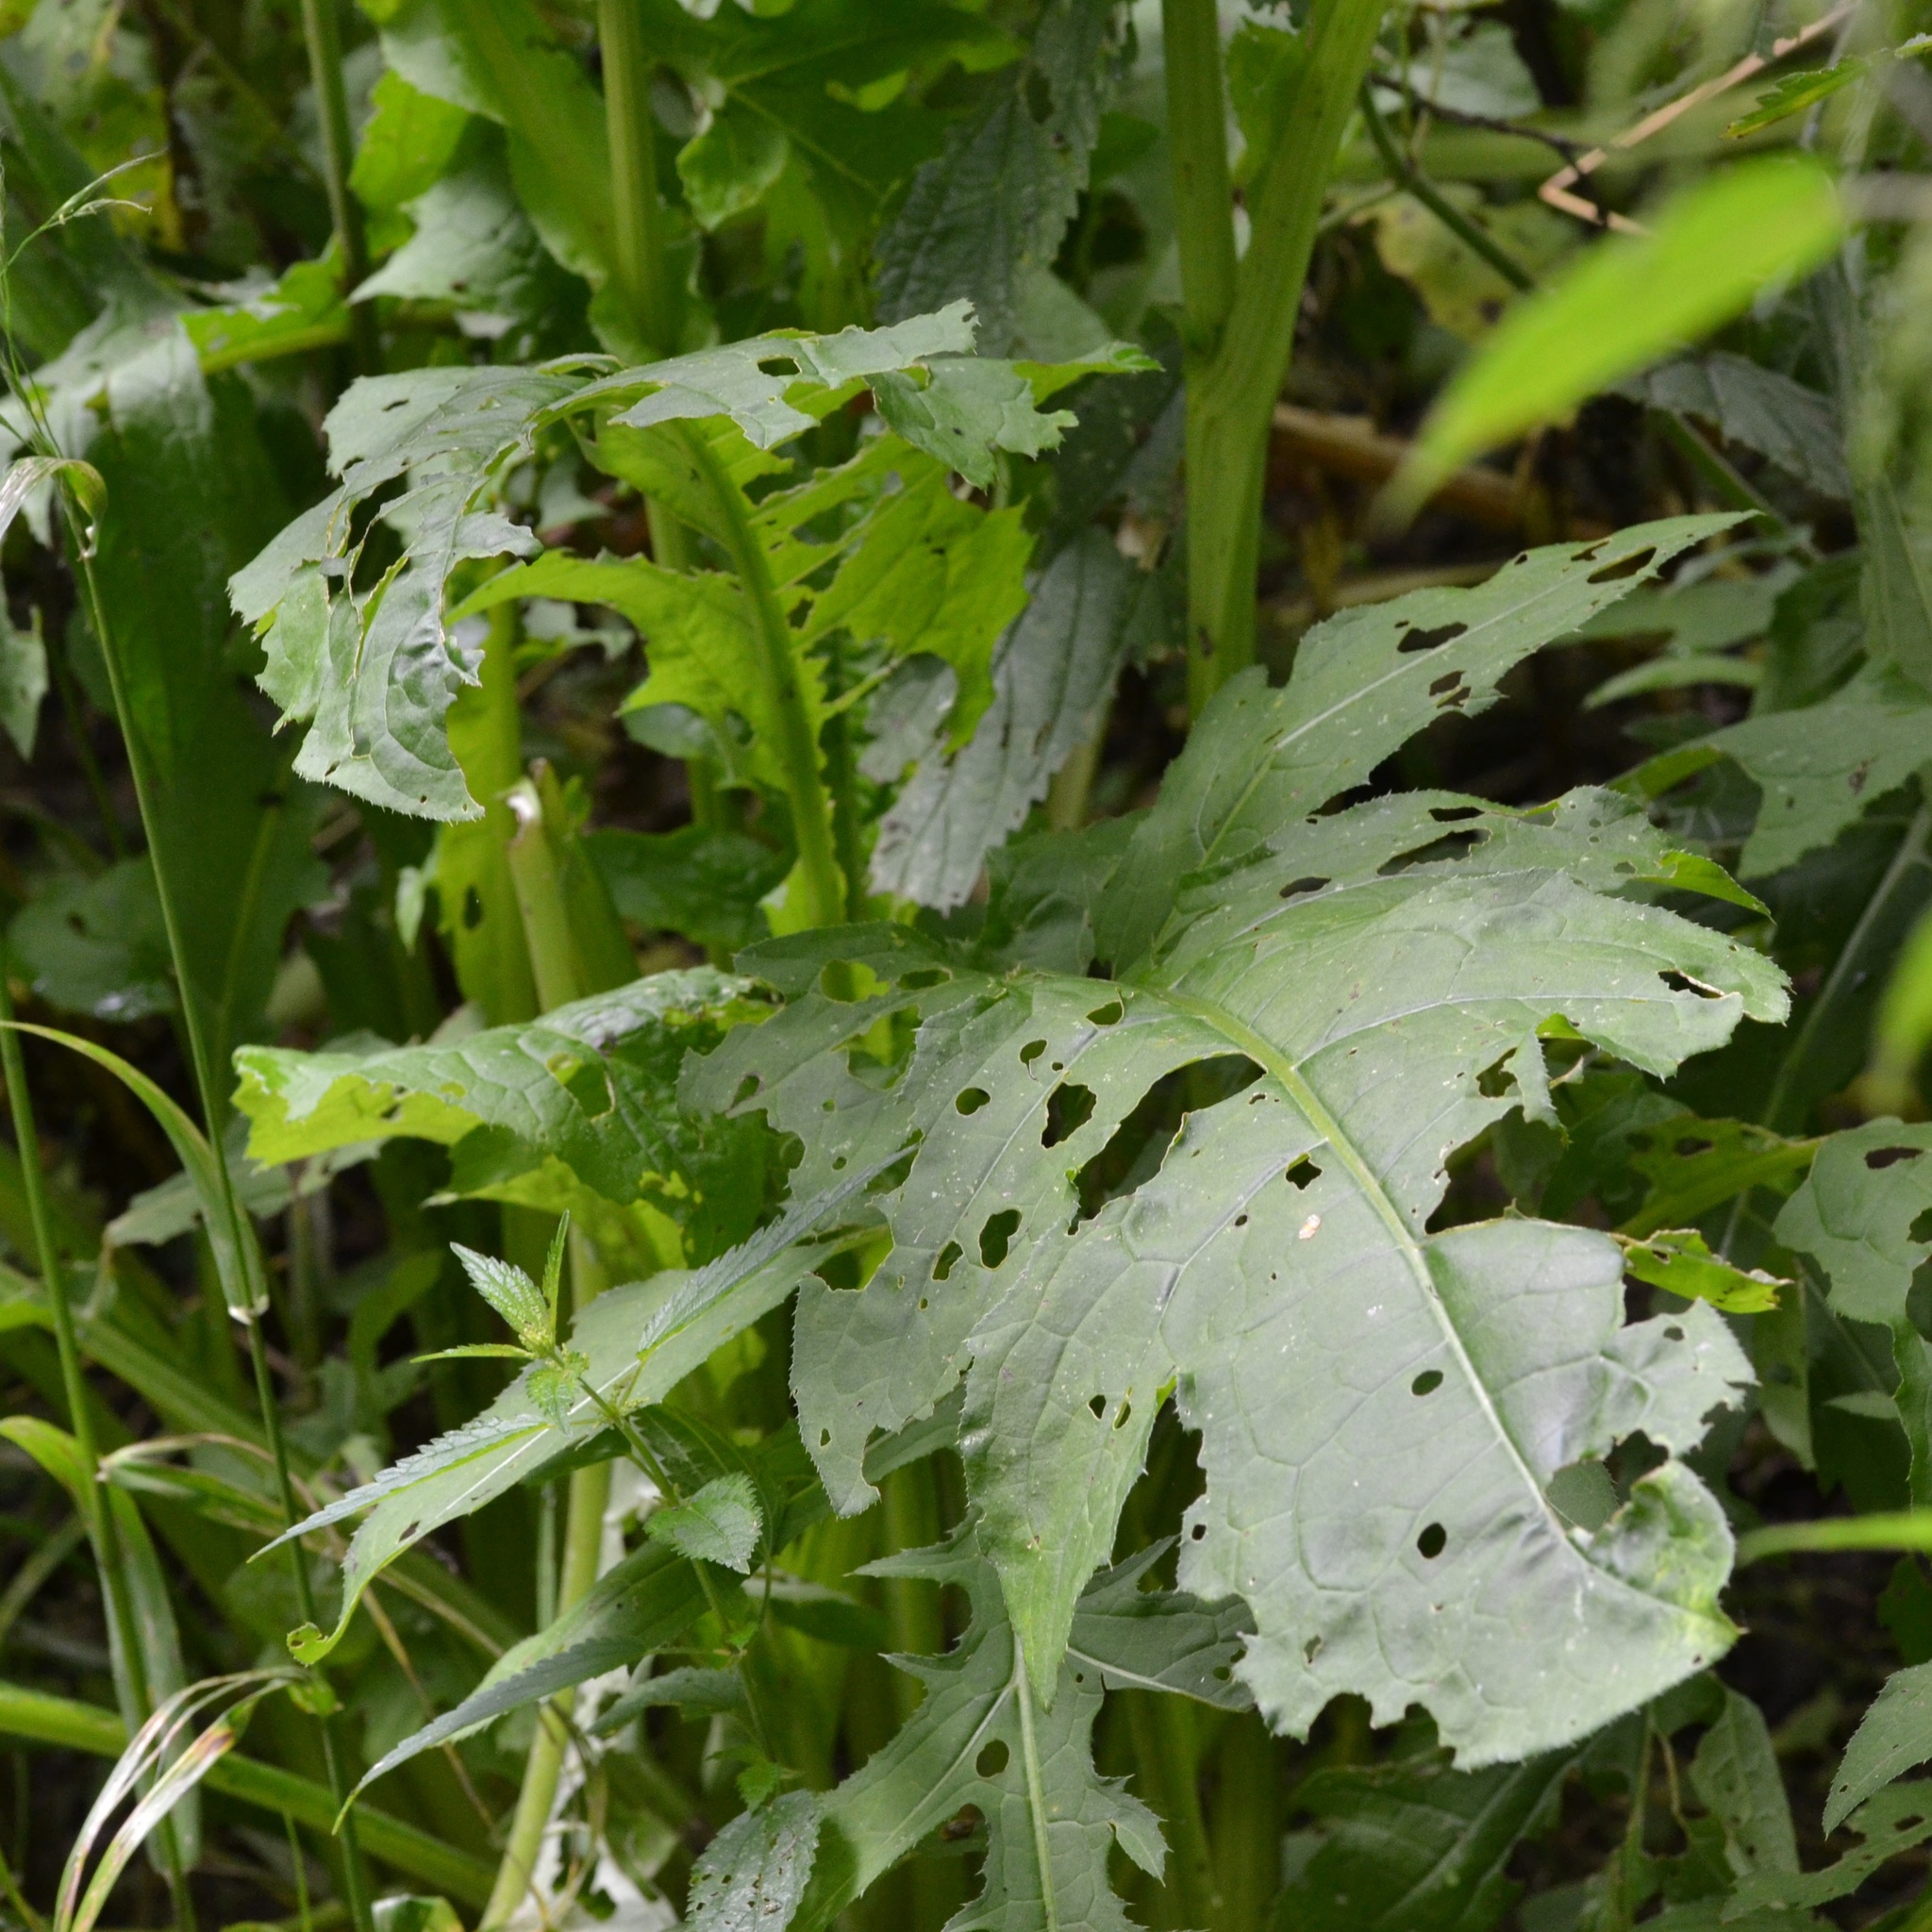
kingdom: Plantae
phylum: Tracheophyta
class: Magnoliopsida
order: Asterales
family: Asteraceae
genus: Cirsium
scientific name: Cirsium oleraceum
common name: Cabbage thistle
